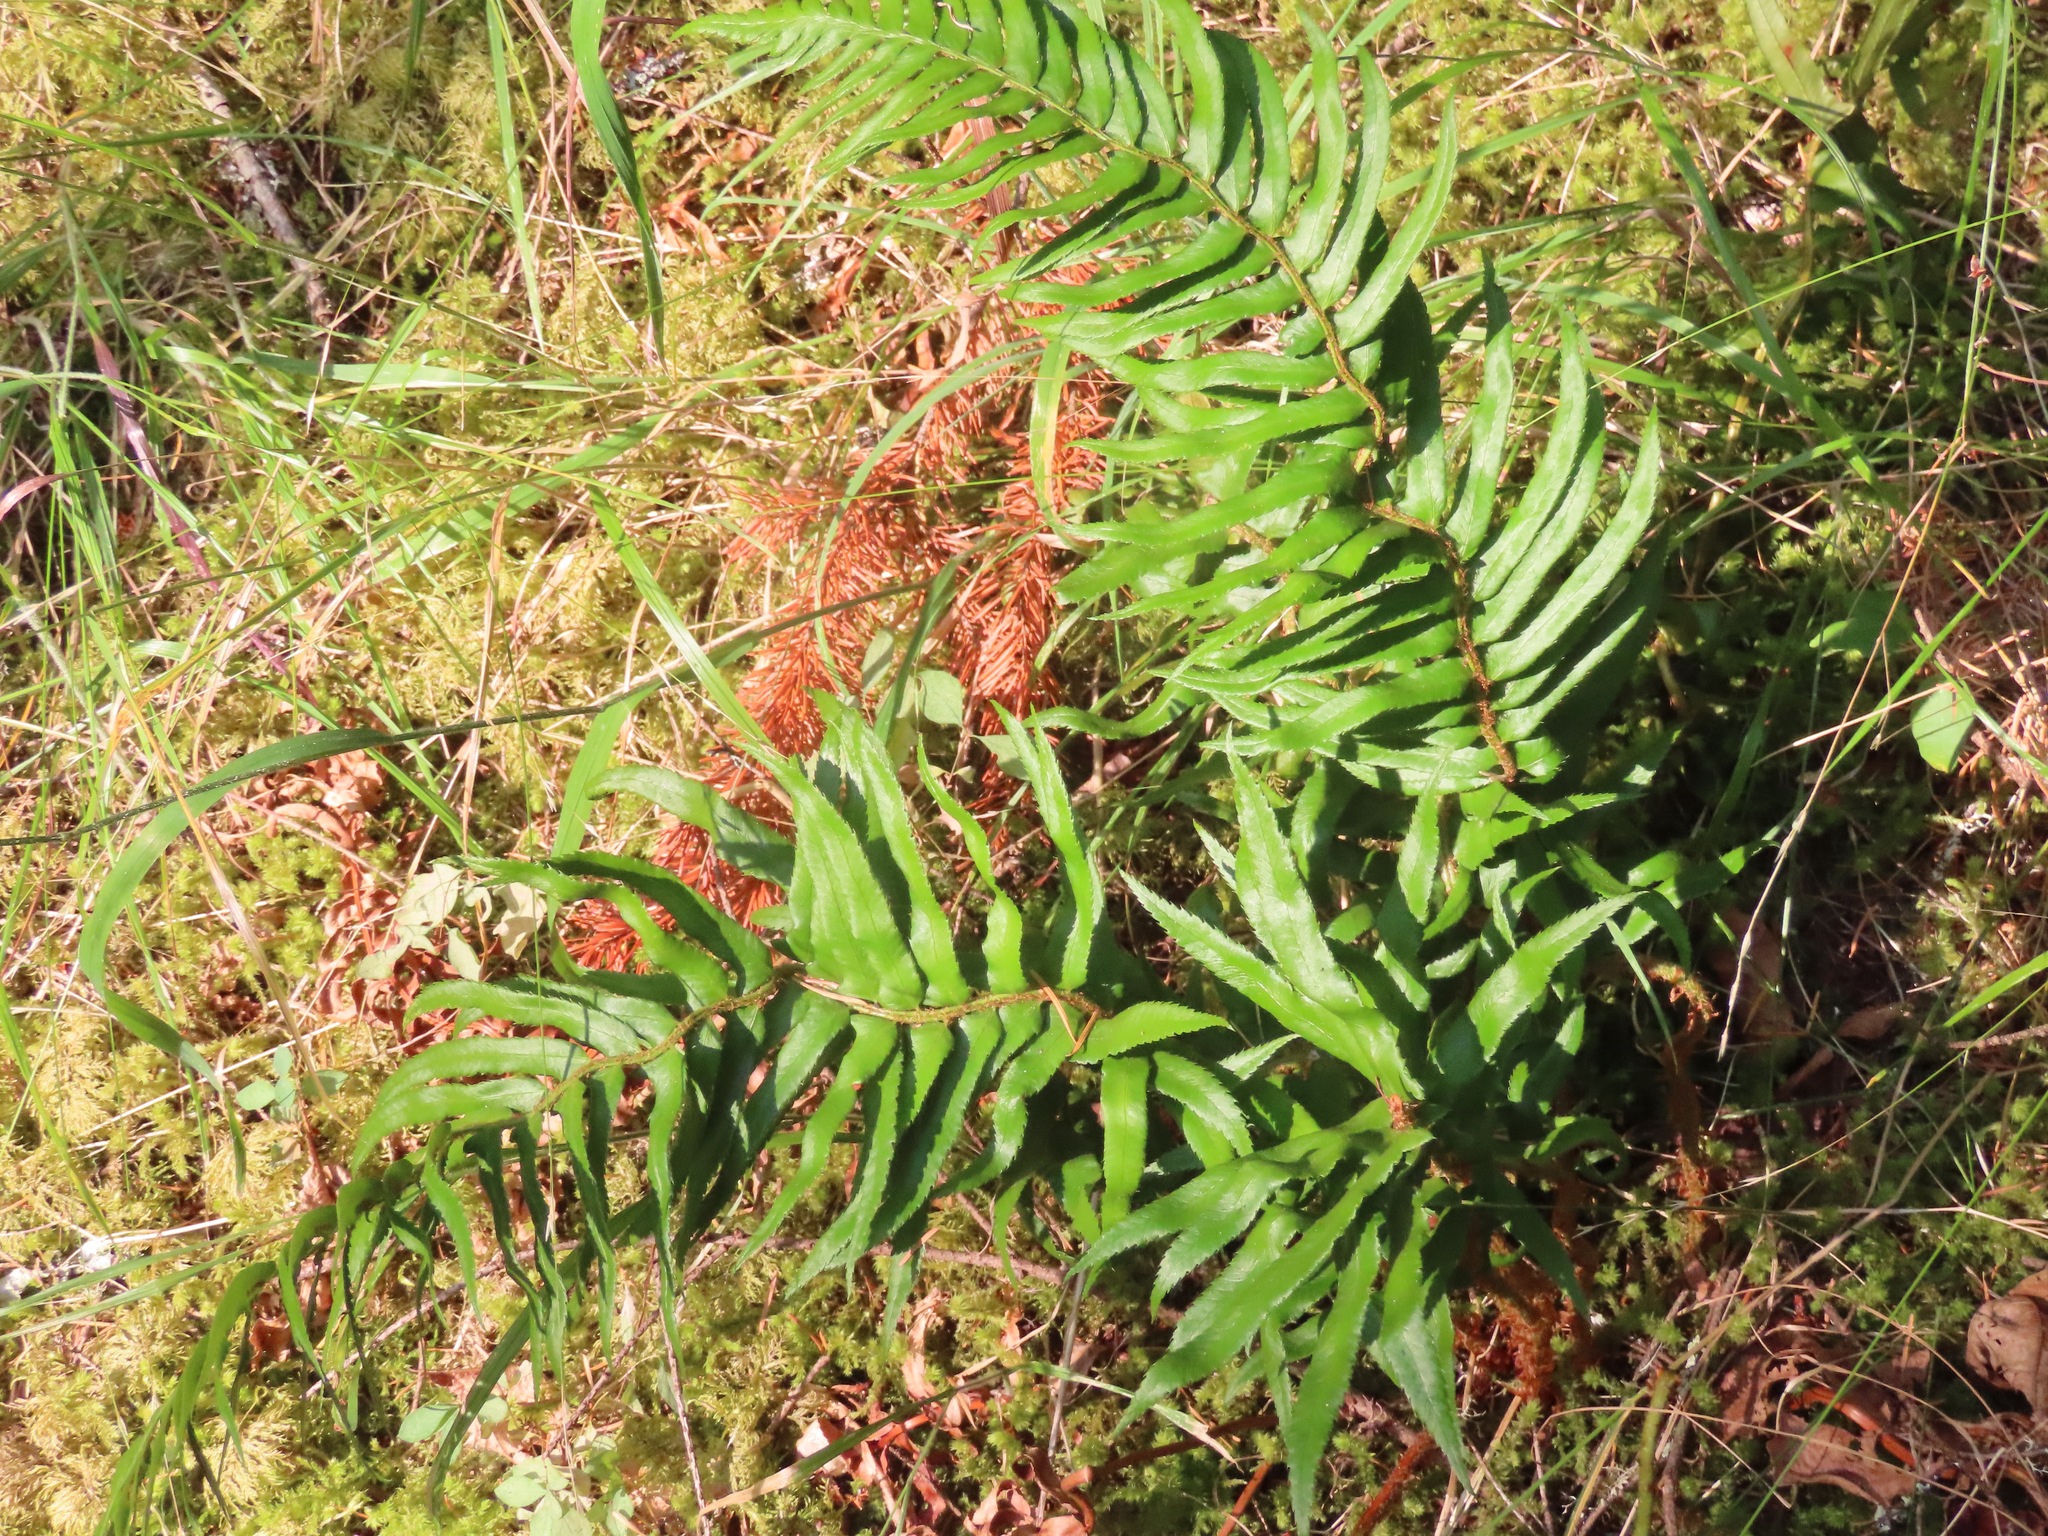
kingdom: Plantae
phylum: Tracheophyta
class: Polypodiopsida
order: Polypodiales
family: Dryopteridaceae
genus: Polystichum
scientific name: Polystichum munitum
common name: Western sword-fern
